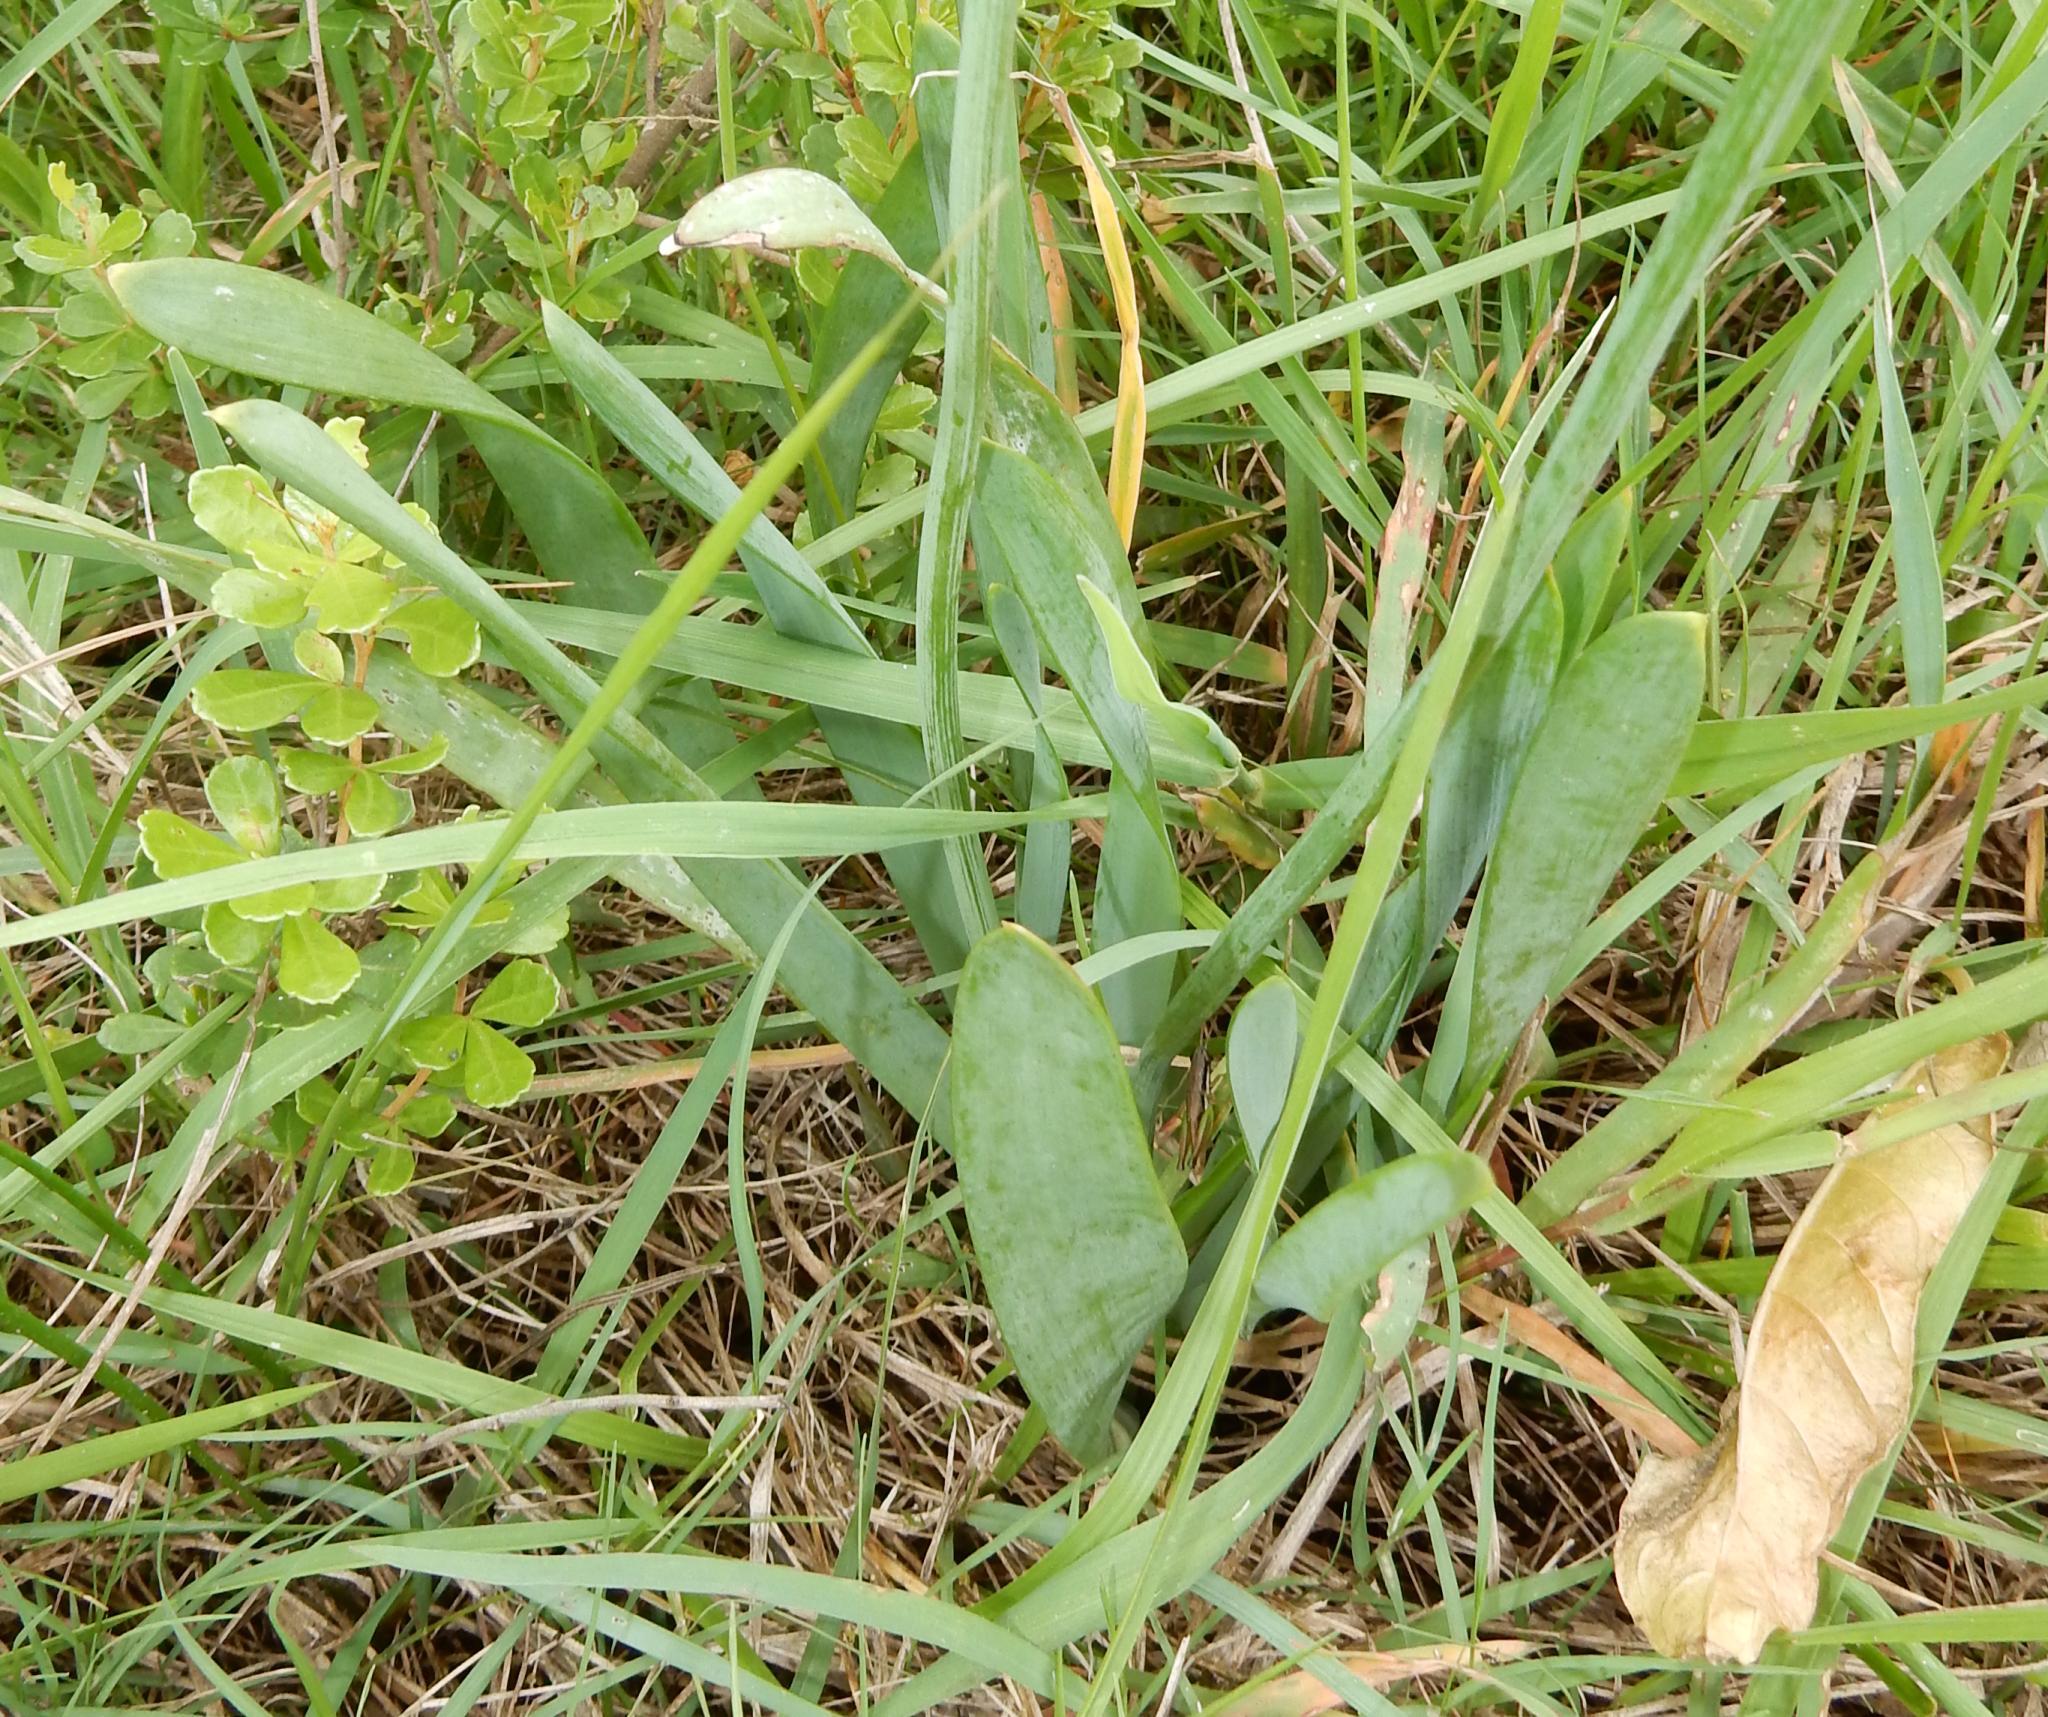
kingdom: Plantae
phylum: Tracheophyta
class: Liliopsida
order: Asparagales
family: Asphodelaceae
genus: Bulbine
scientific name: Bulbine narcissifolia
